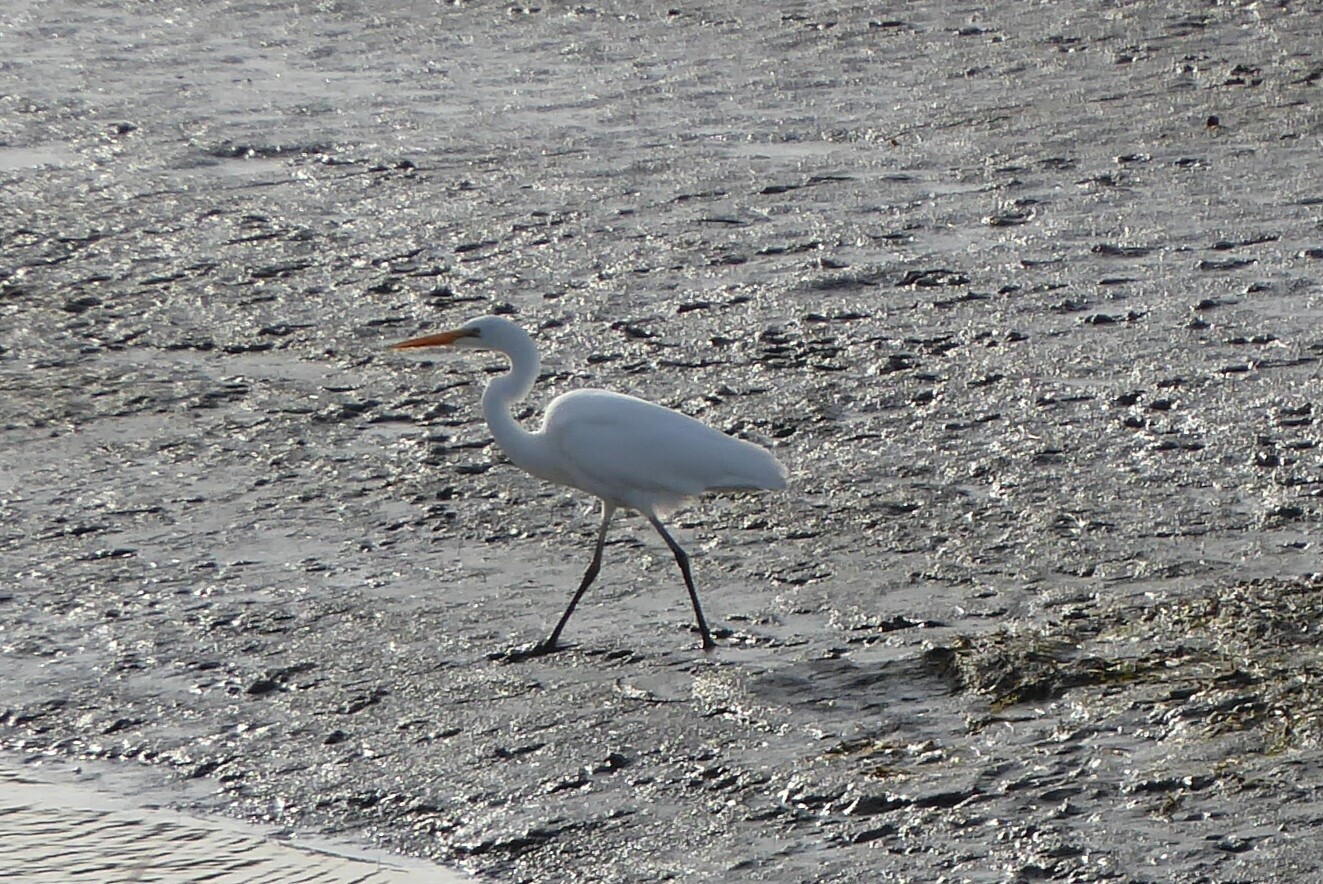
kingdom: Animalia
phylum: Chordata
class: Aves
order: Pelecaniformes
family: Ardeidae
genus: Ardea
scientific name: Ardea modesta
